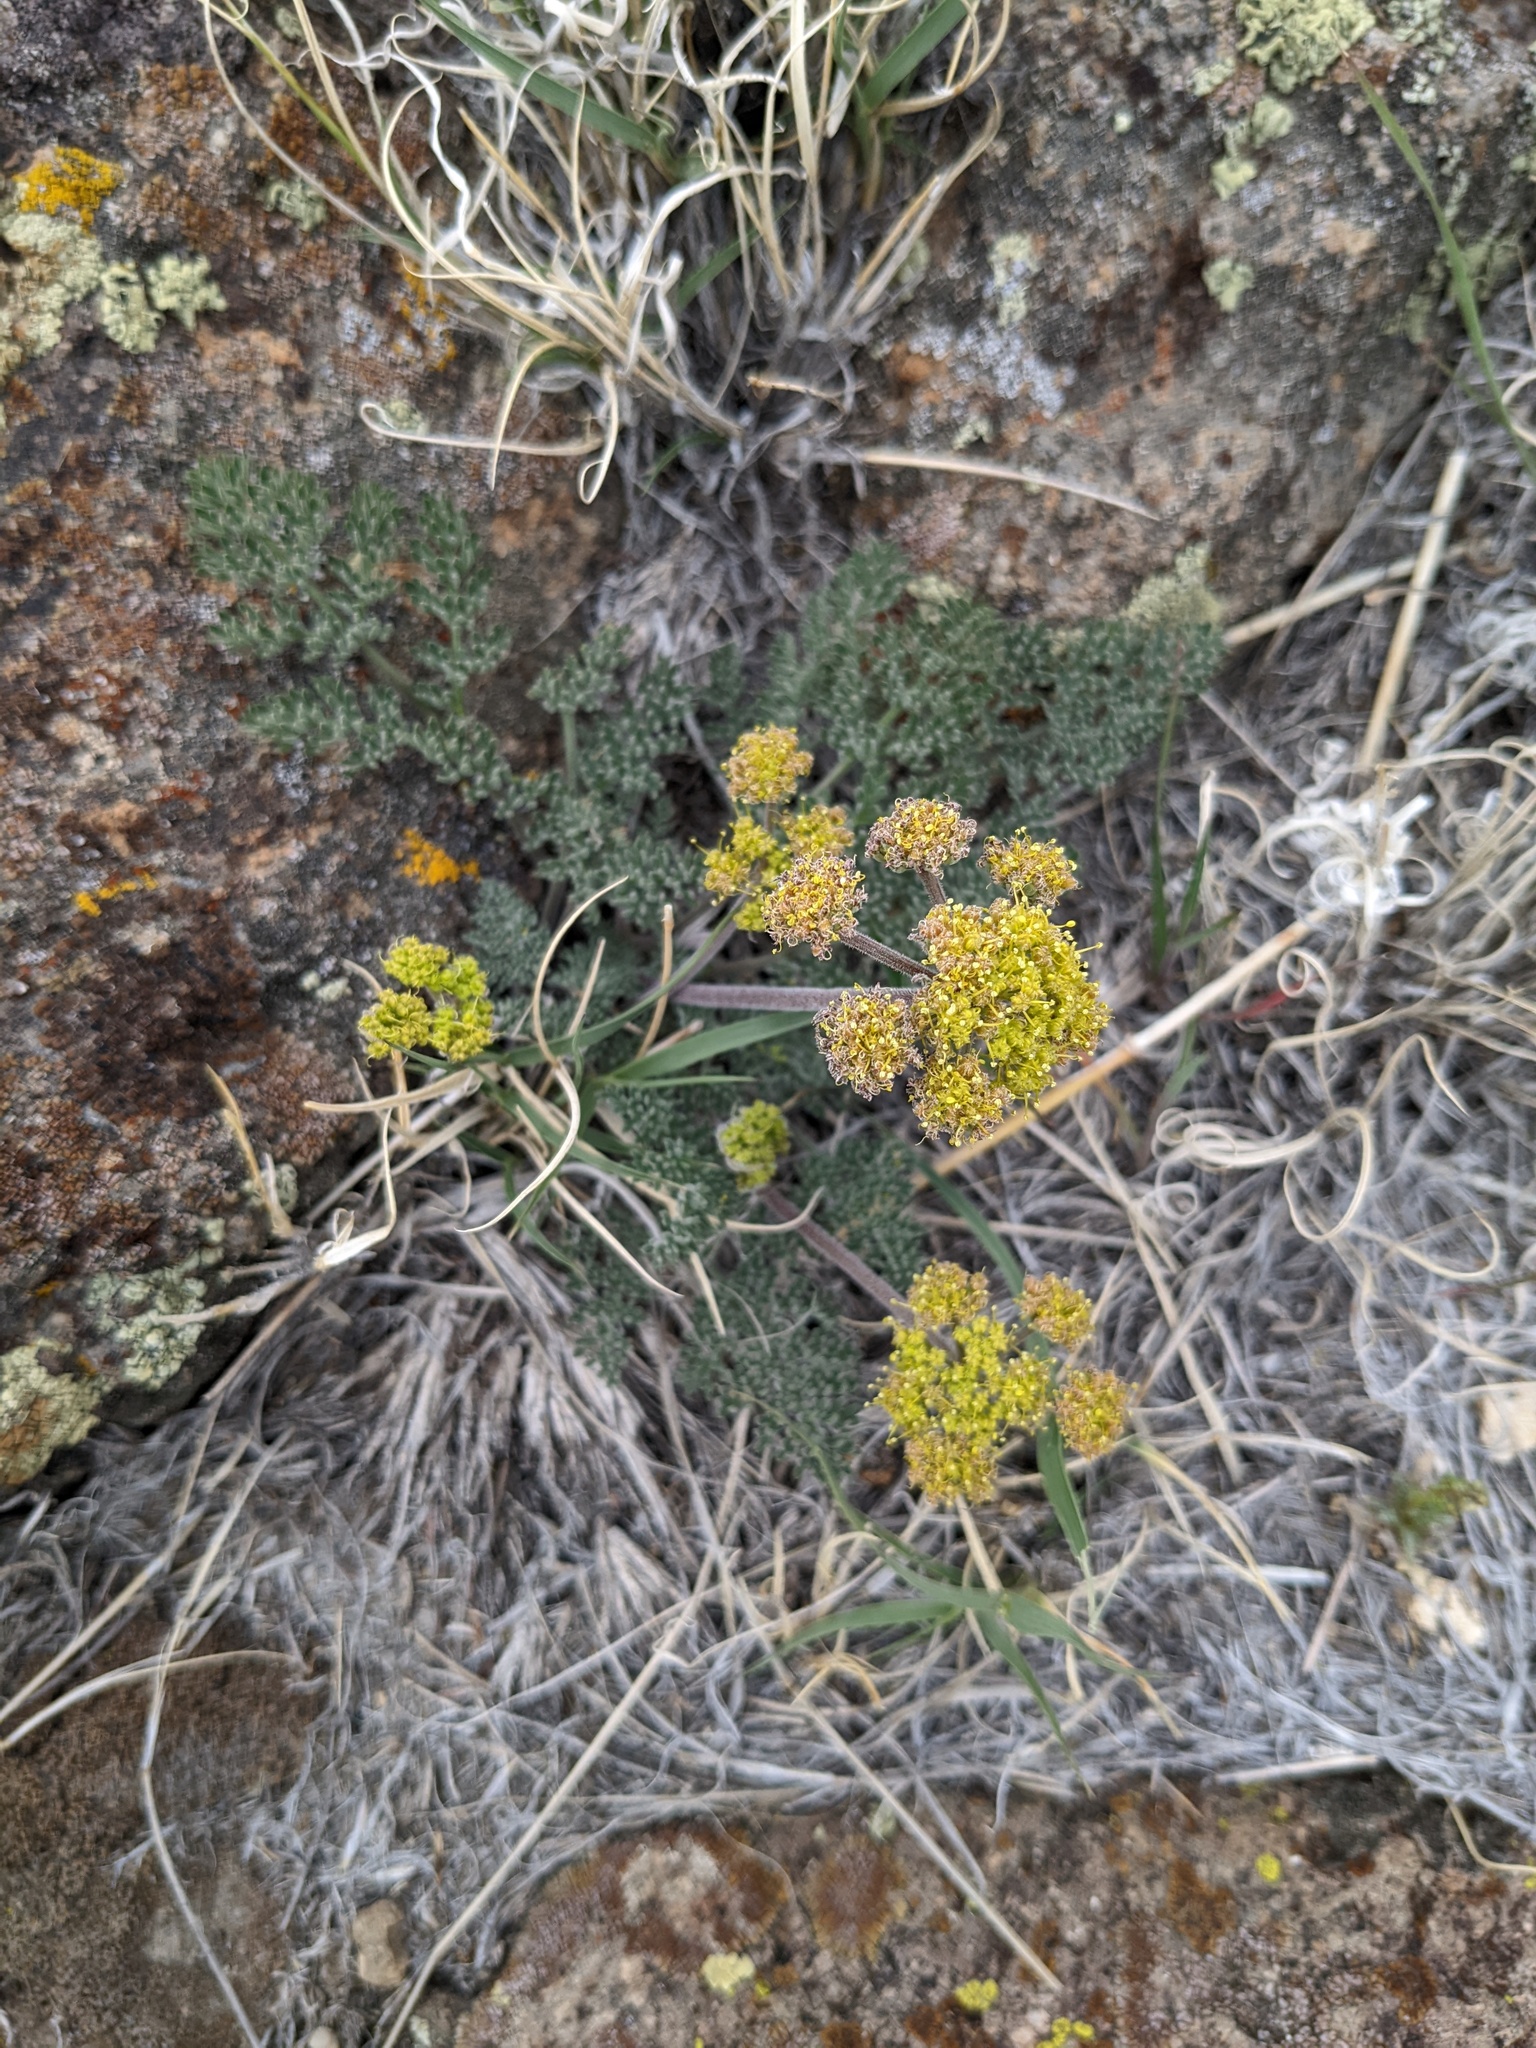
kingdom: Plantae
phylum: Tracheophyta
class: Magnoliopsida
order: Apiales
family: Apiaceae
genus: Lomatium
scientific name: Lomatium foeniculaceum
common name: Desert-parsley
